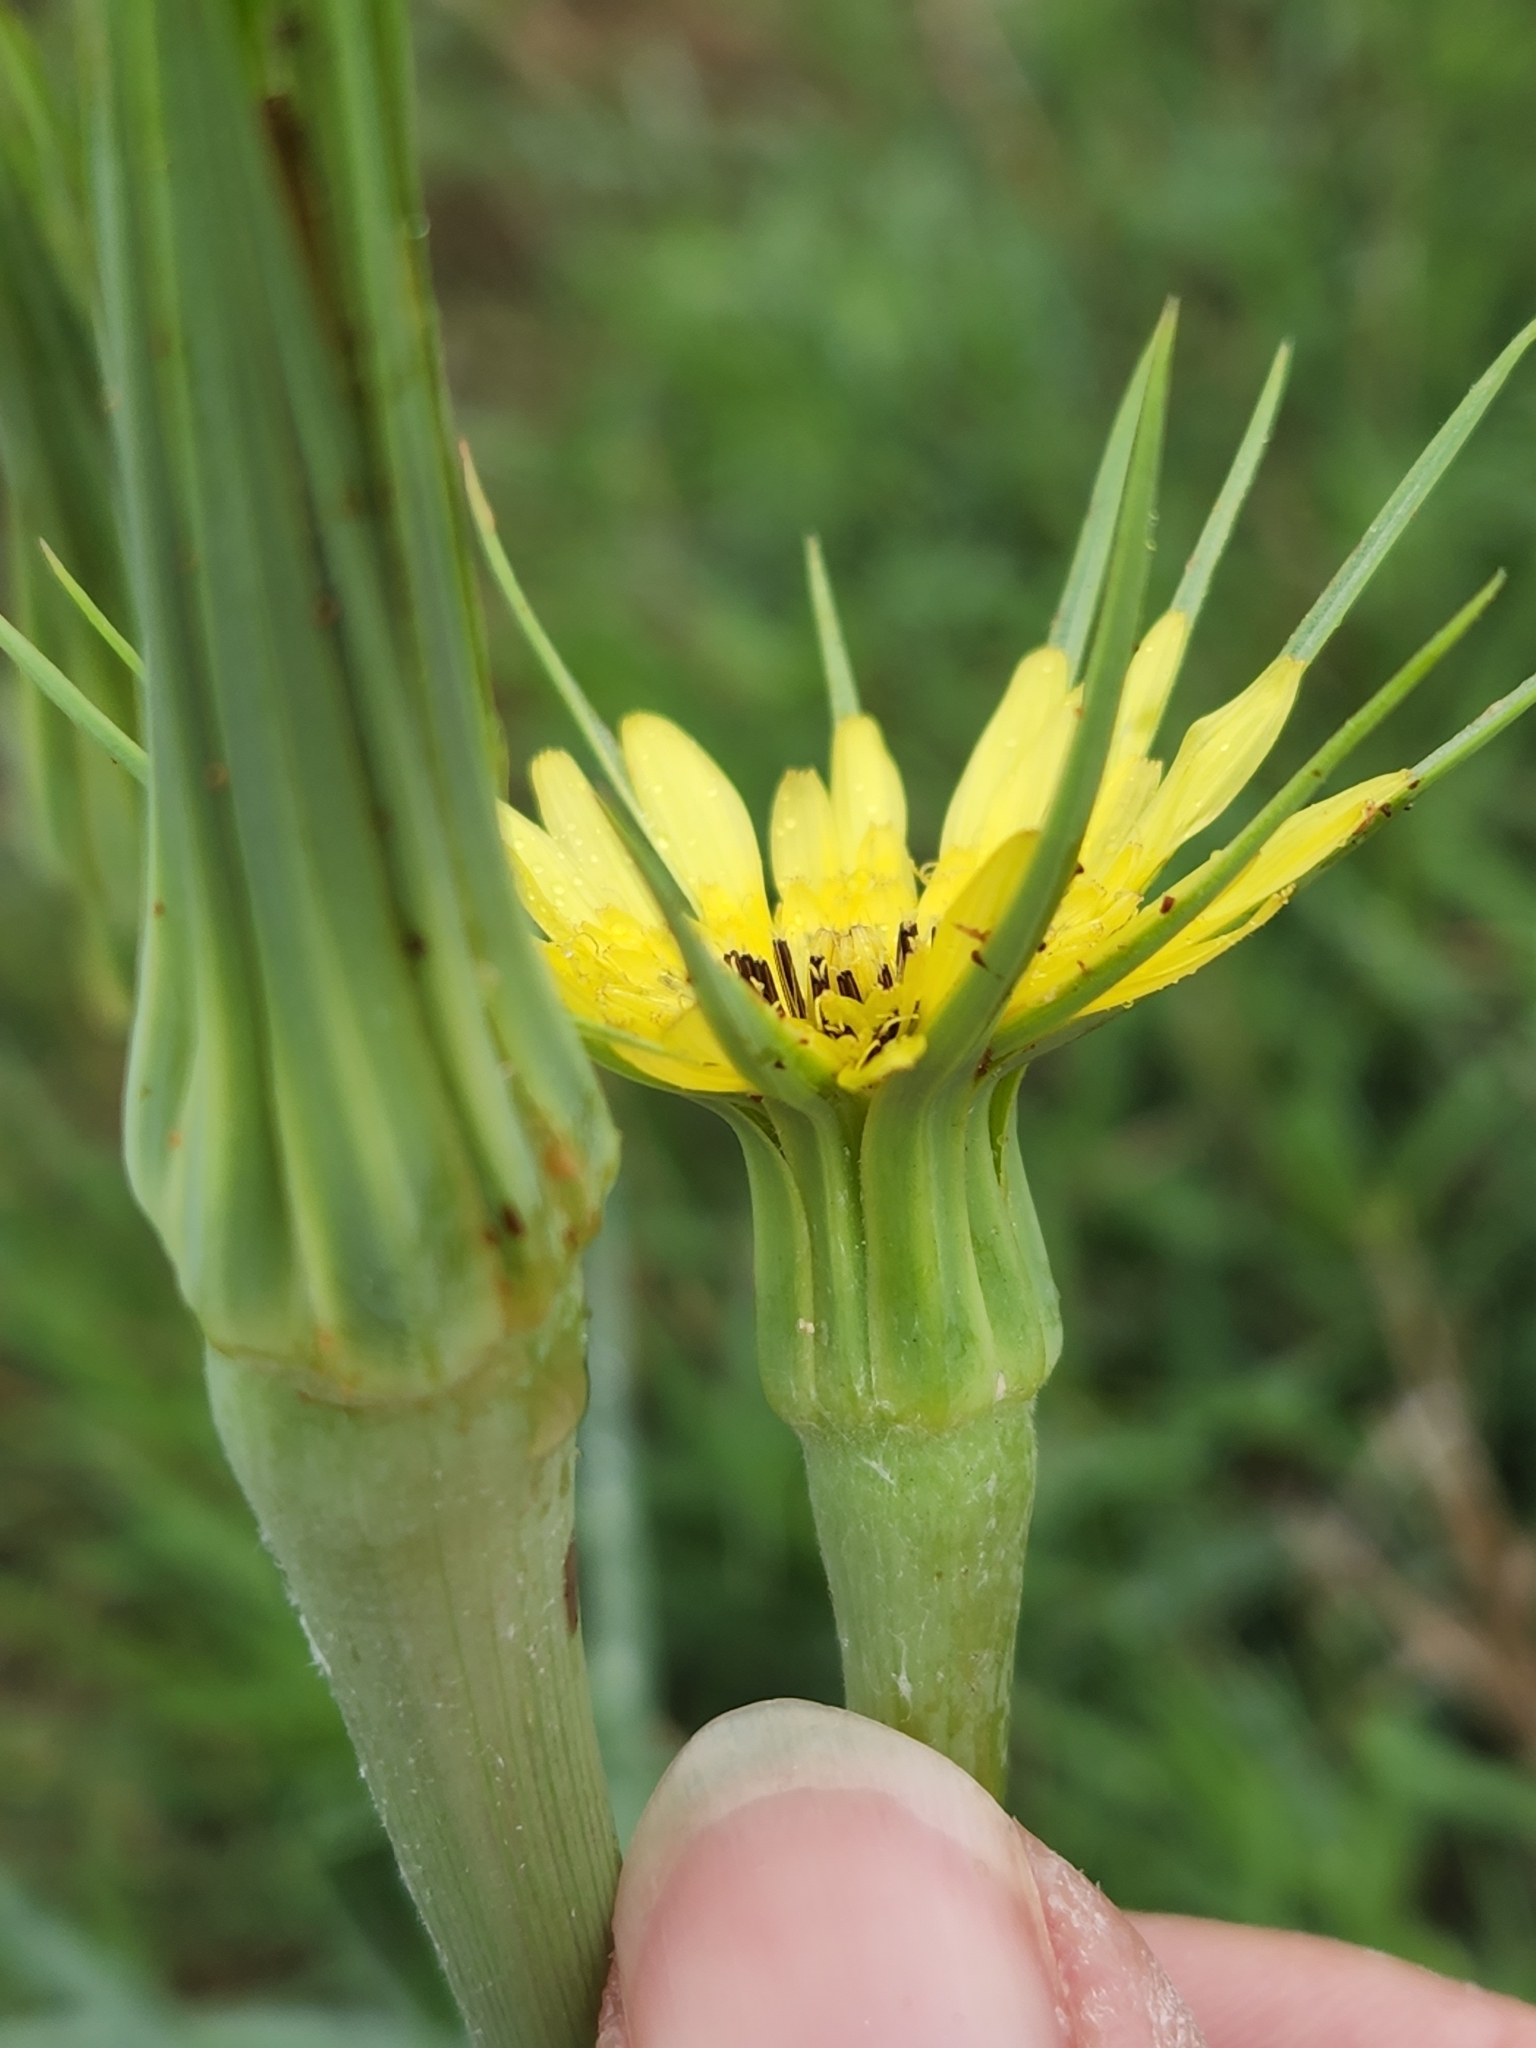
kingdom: Plantae
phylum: Tracheophyta
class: Magnoliopsida
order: Asterales
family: Asteraceae
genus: Tragopogon
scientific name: Tragopogon dubius
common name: Yellow salsify
